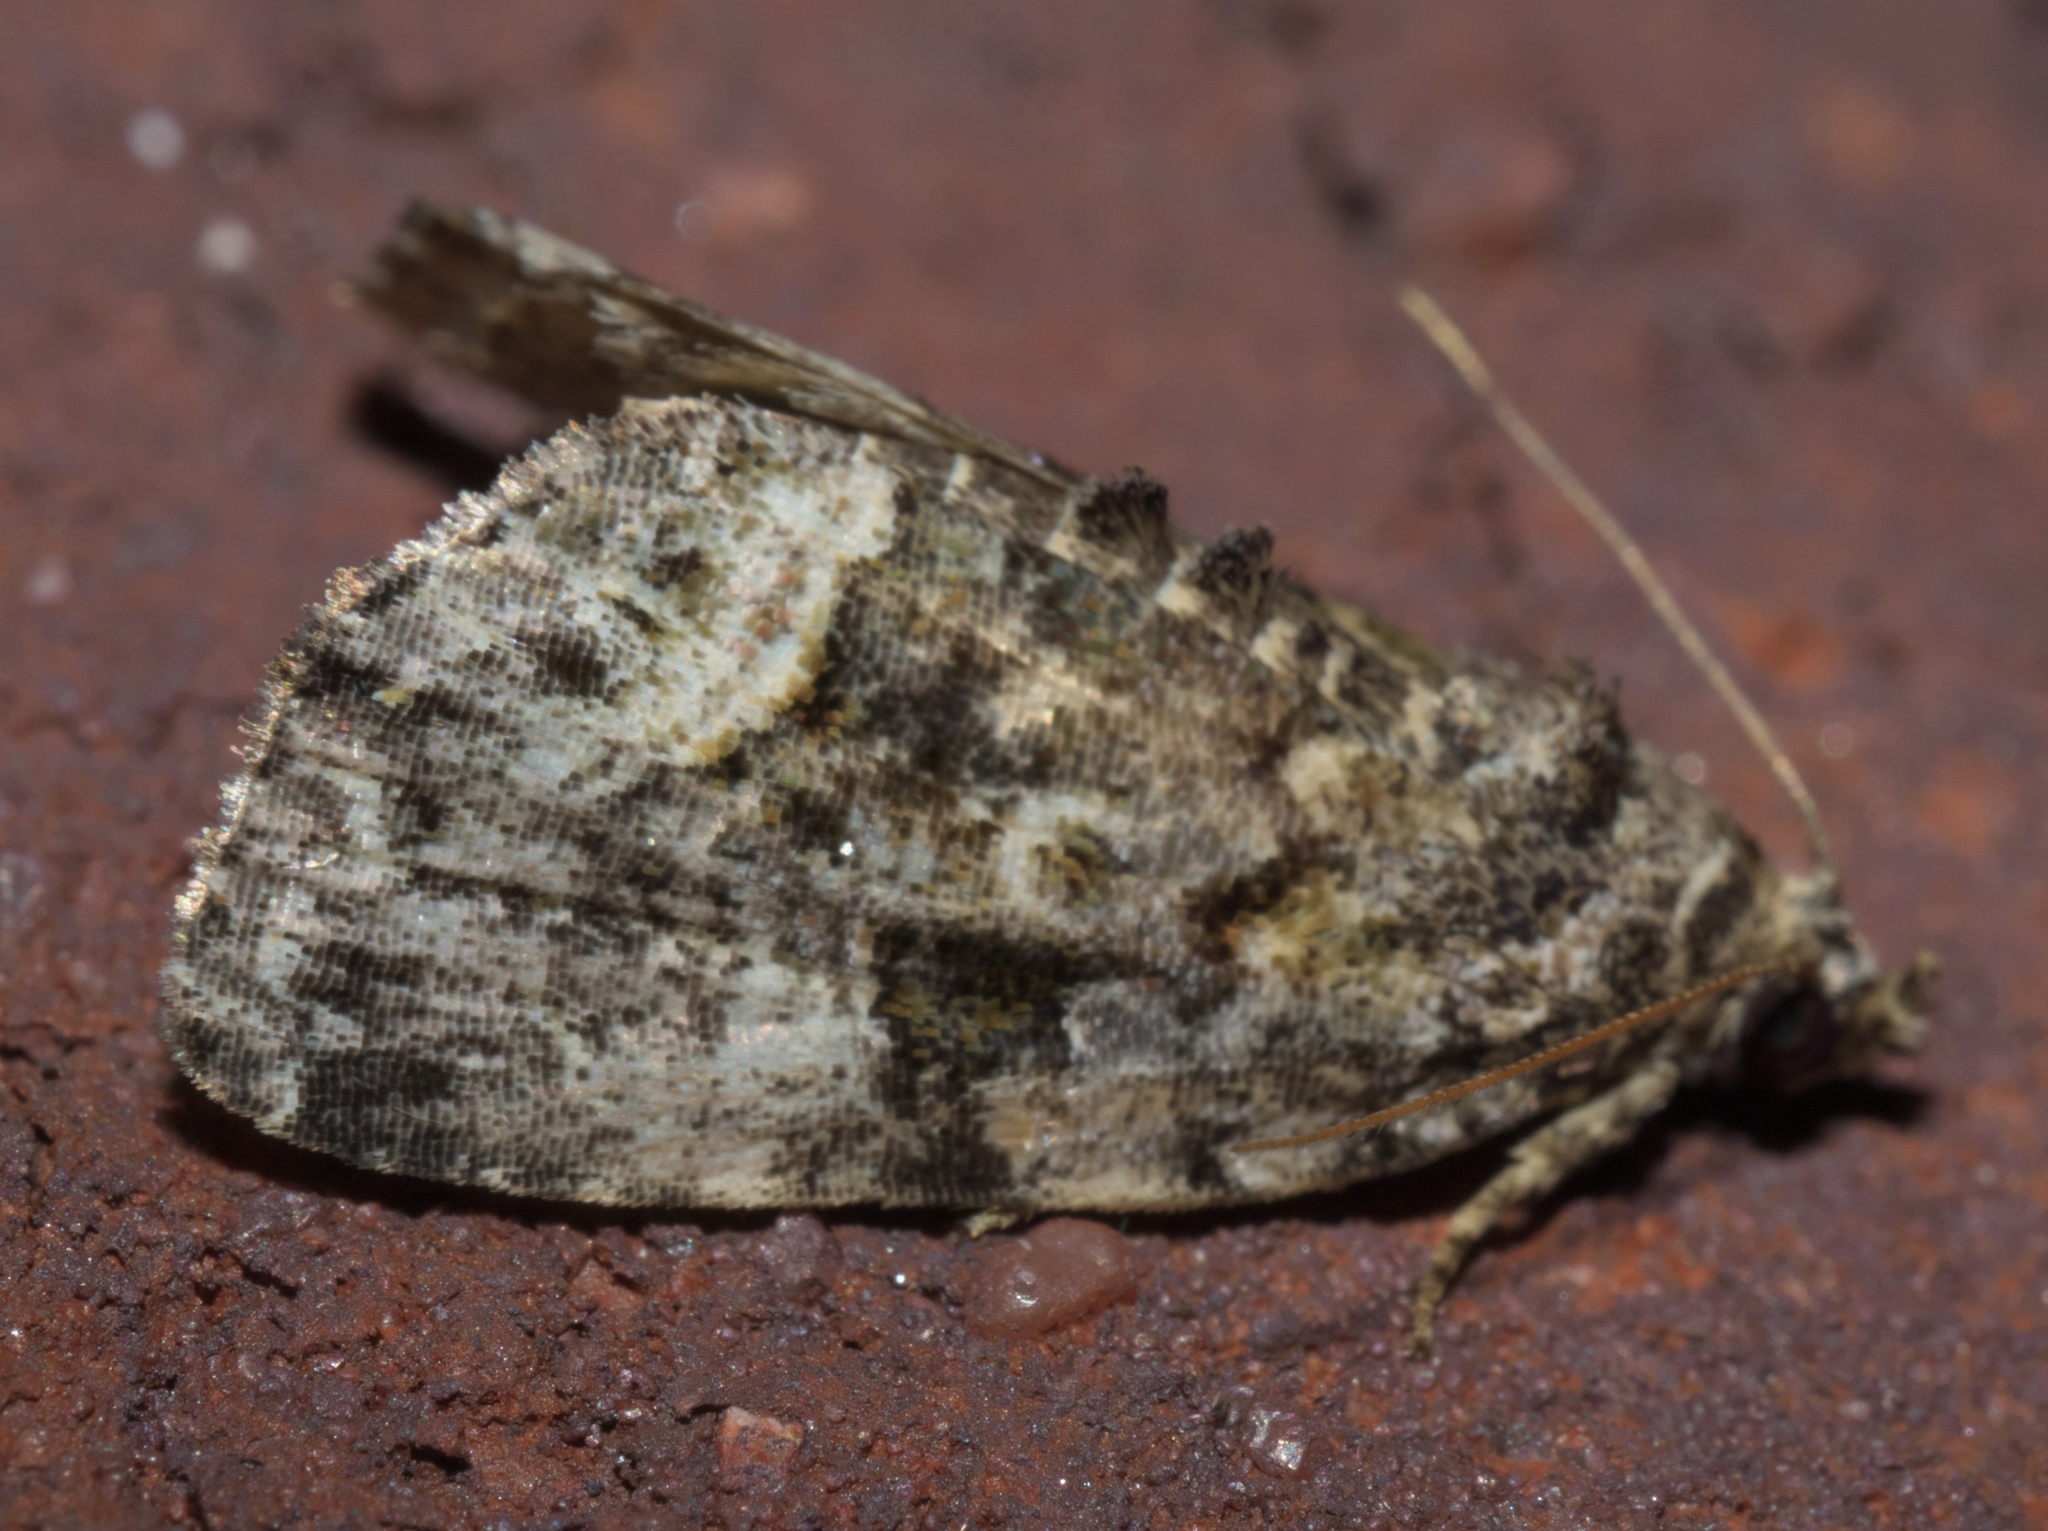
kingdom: Animalia
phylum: Arthropoda
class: Insecta
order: Lepidoptera
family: Noctuidae
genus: Protodeltote
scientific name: Protodeltote muscosula
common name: Large mossy glyph
